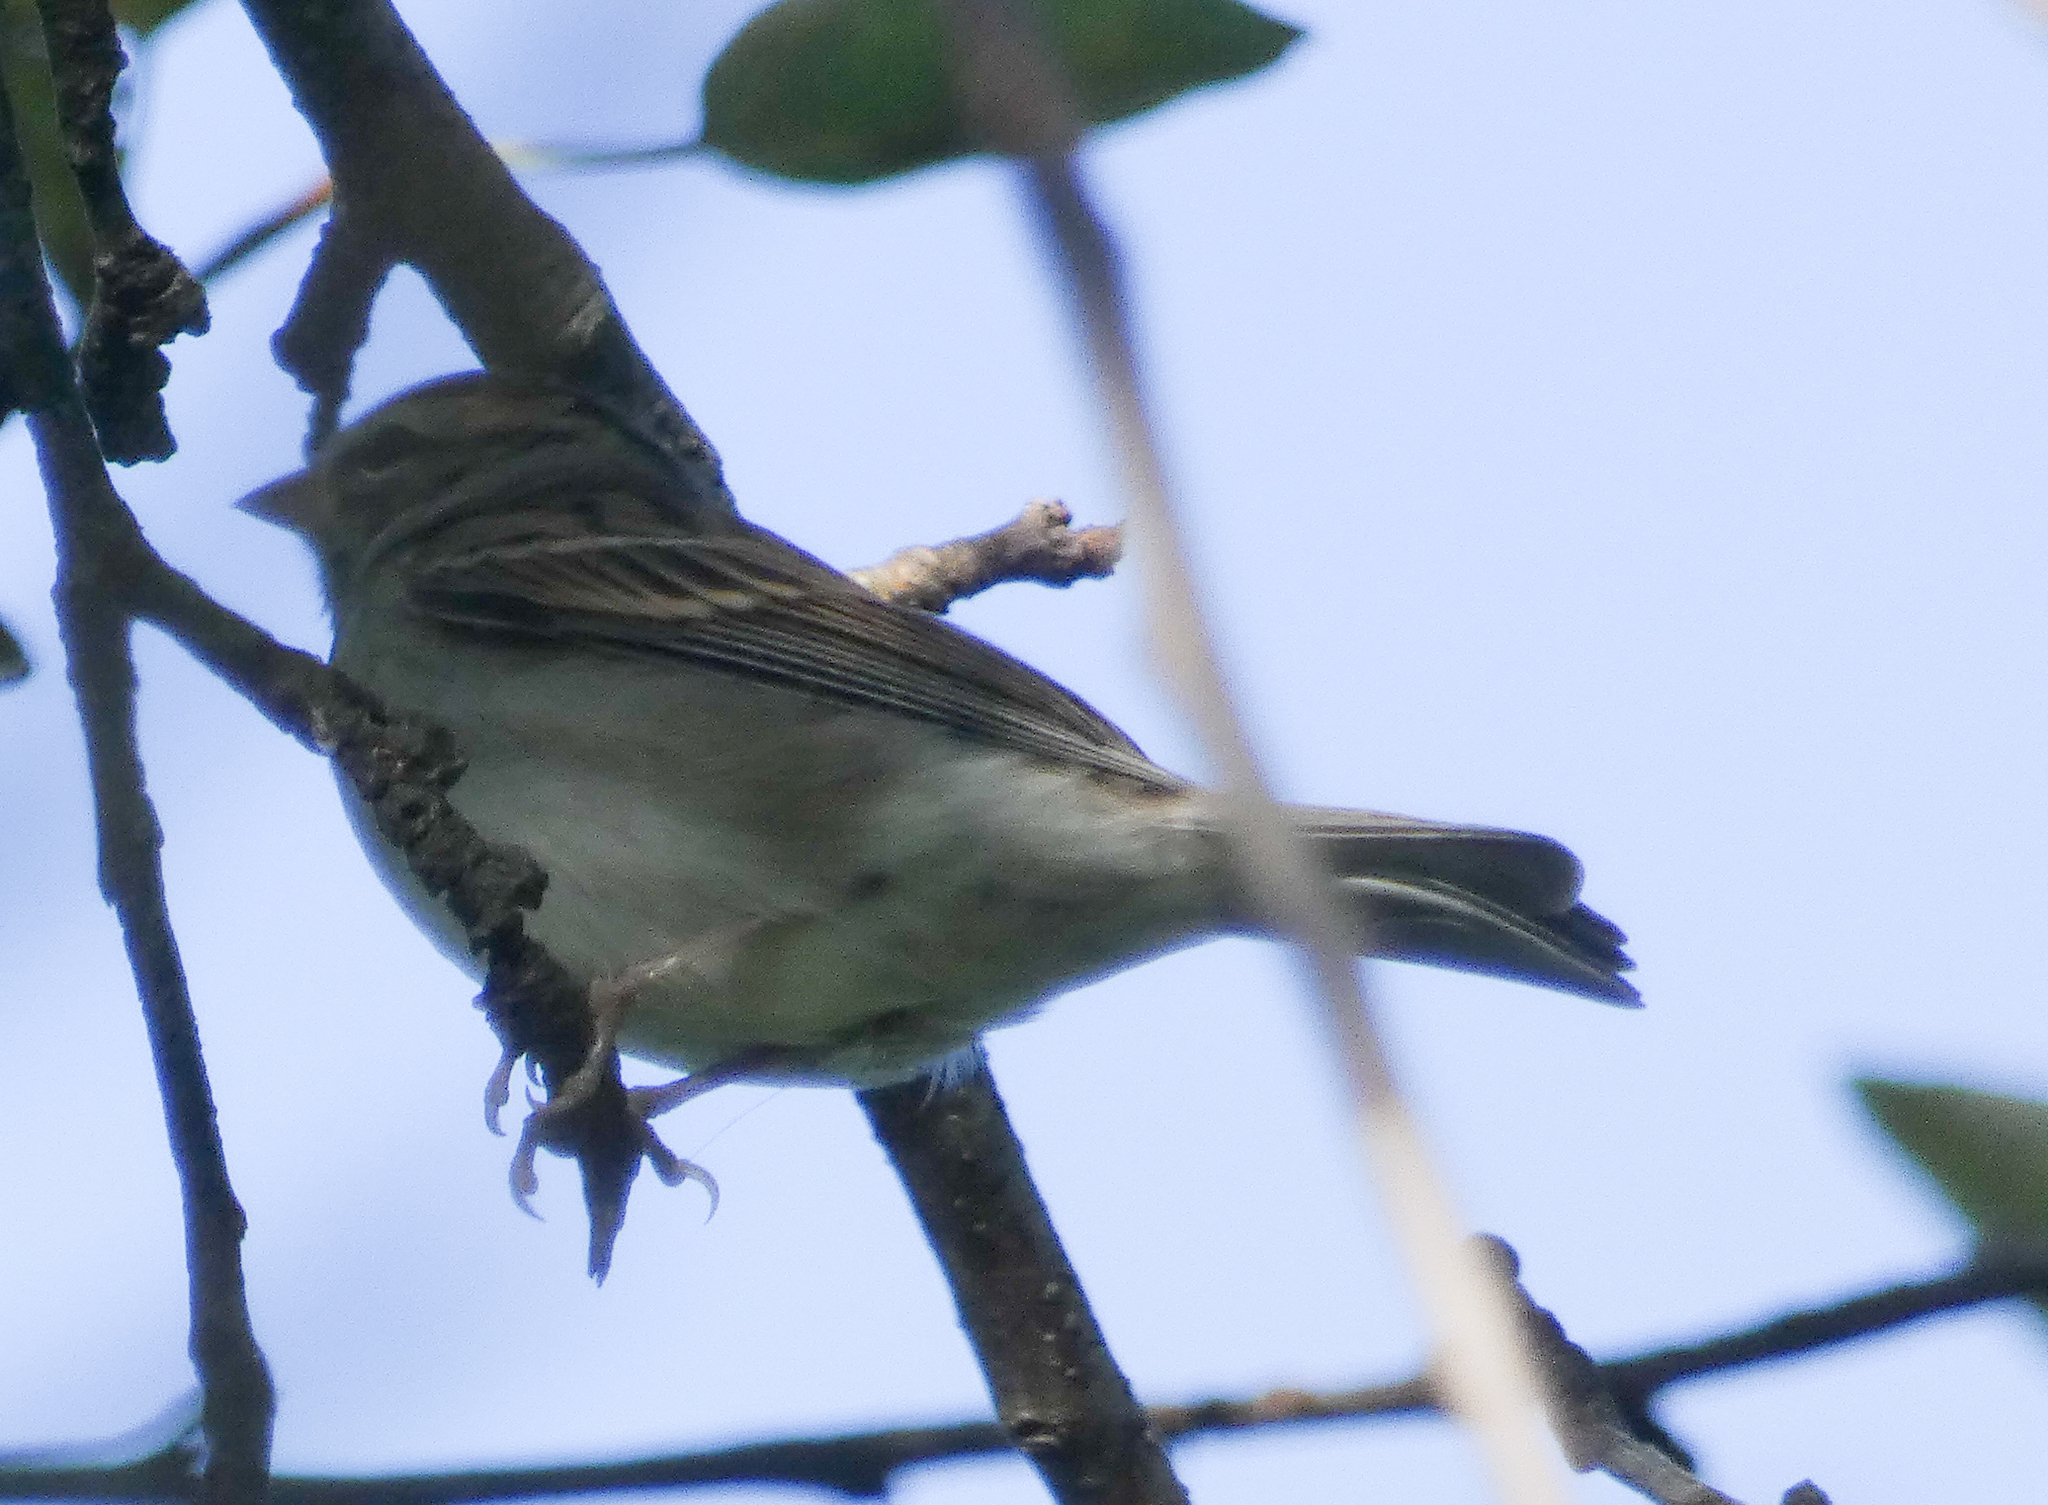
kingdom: Animalia
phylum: Chordata
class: Aves
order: Passeriformes
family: Passerellidae
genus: Spizella
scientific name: Spizella passerina
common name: Chipping sparrow
